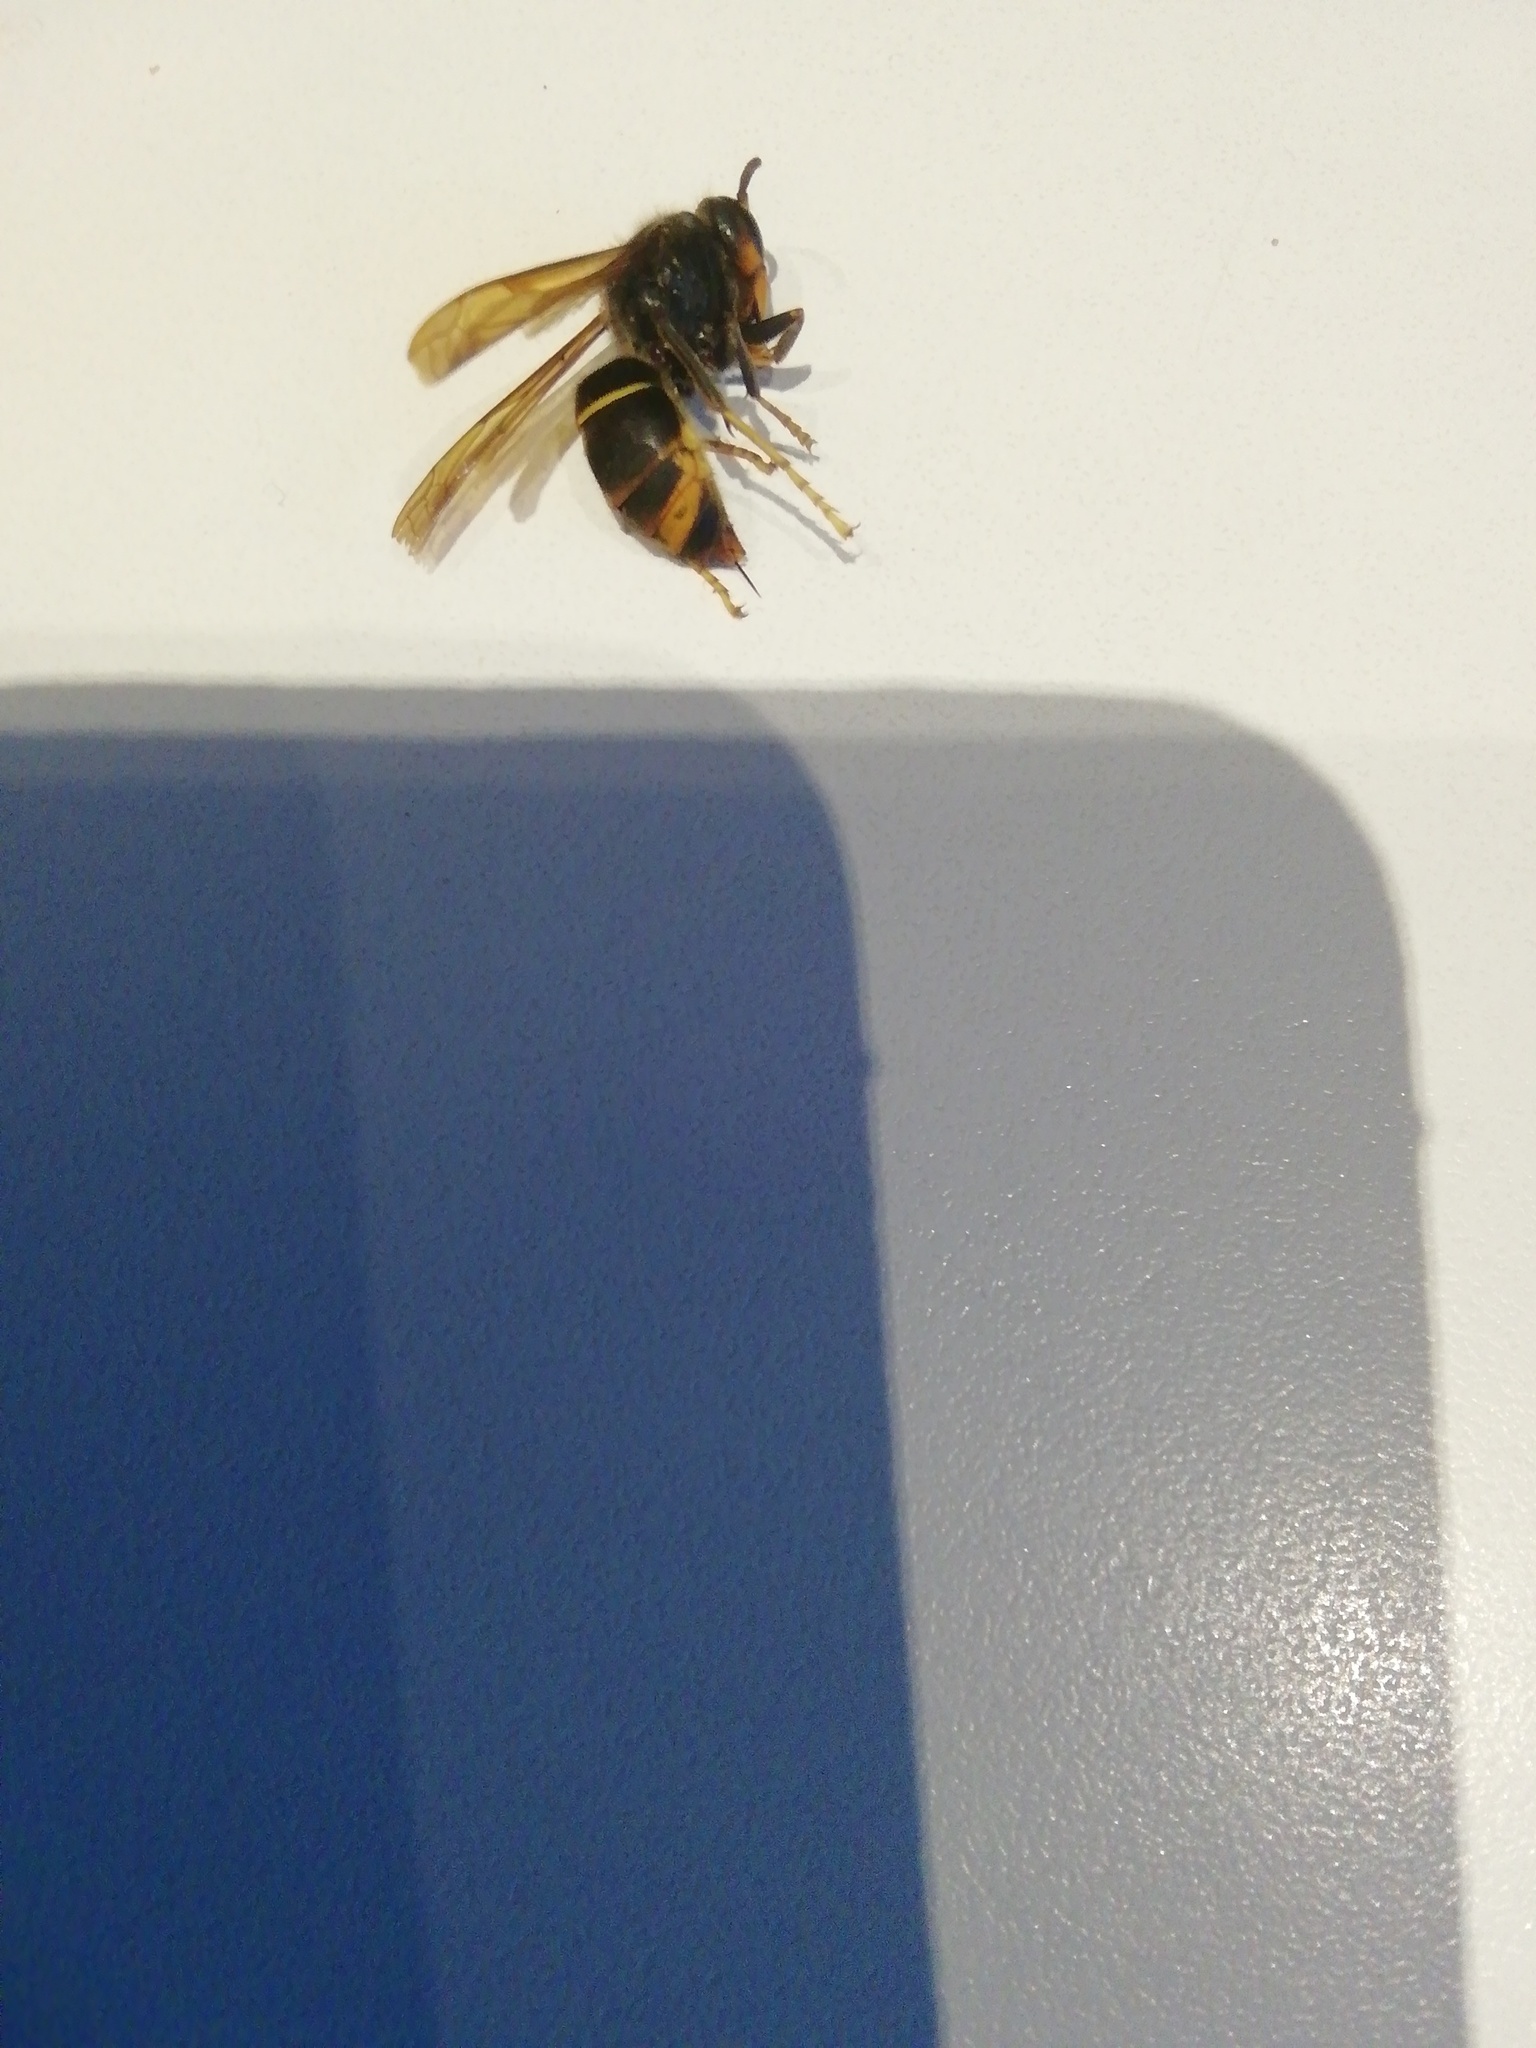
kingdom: Animalia
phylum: Arthropoda
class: Insecta
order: Hymenoptera
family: Vespidae
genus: Vespa
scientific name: Vespa velutina
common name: Asian hornet
